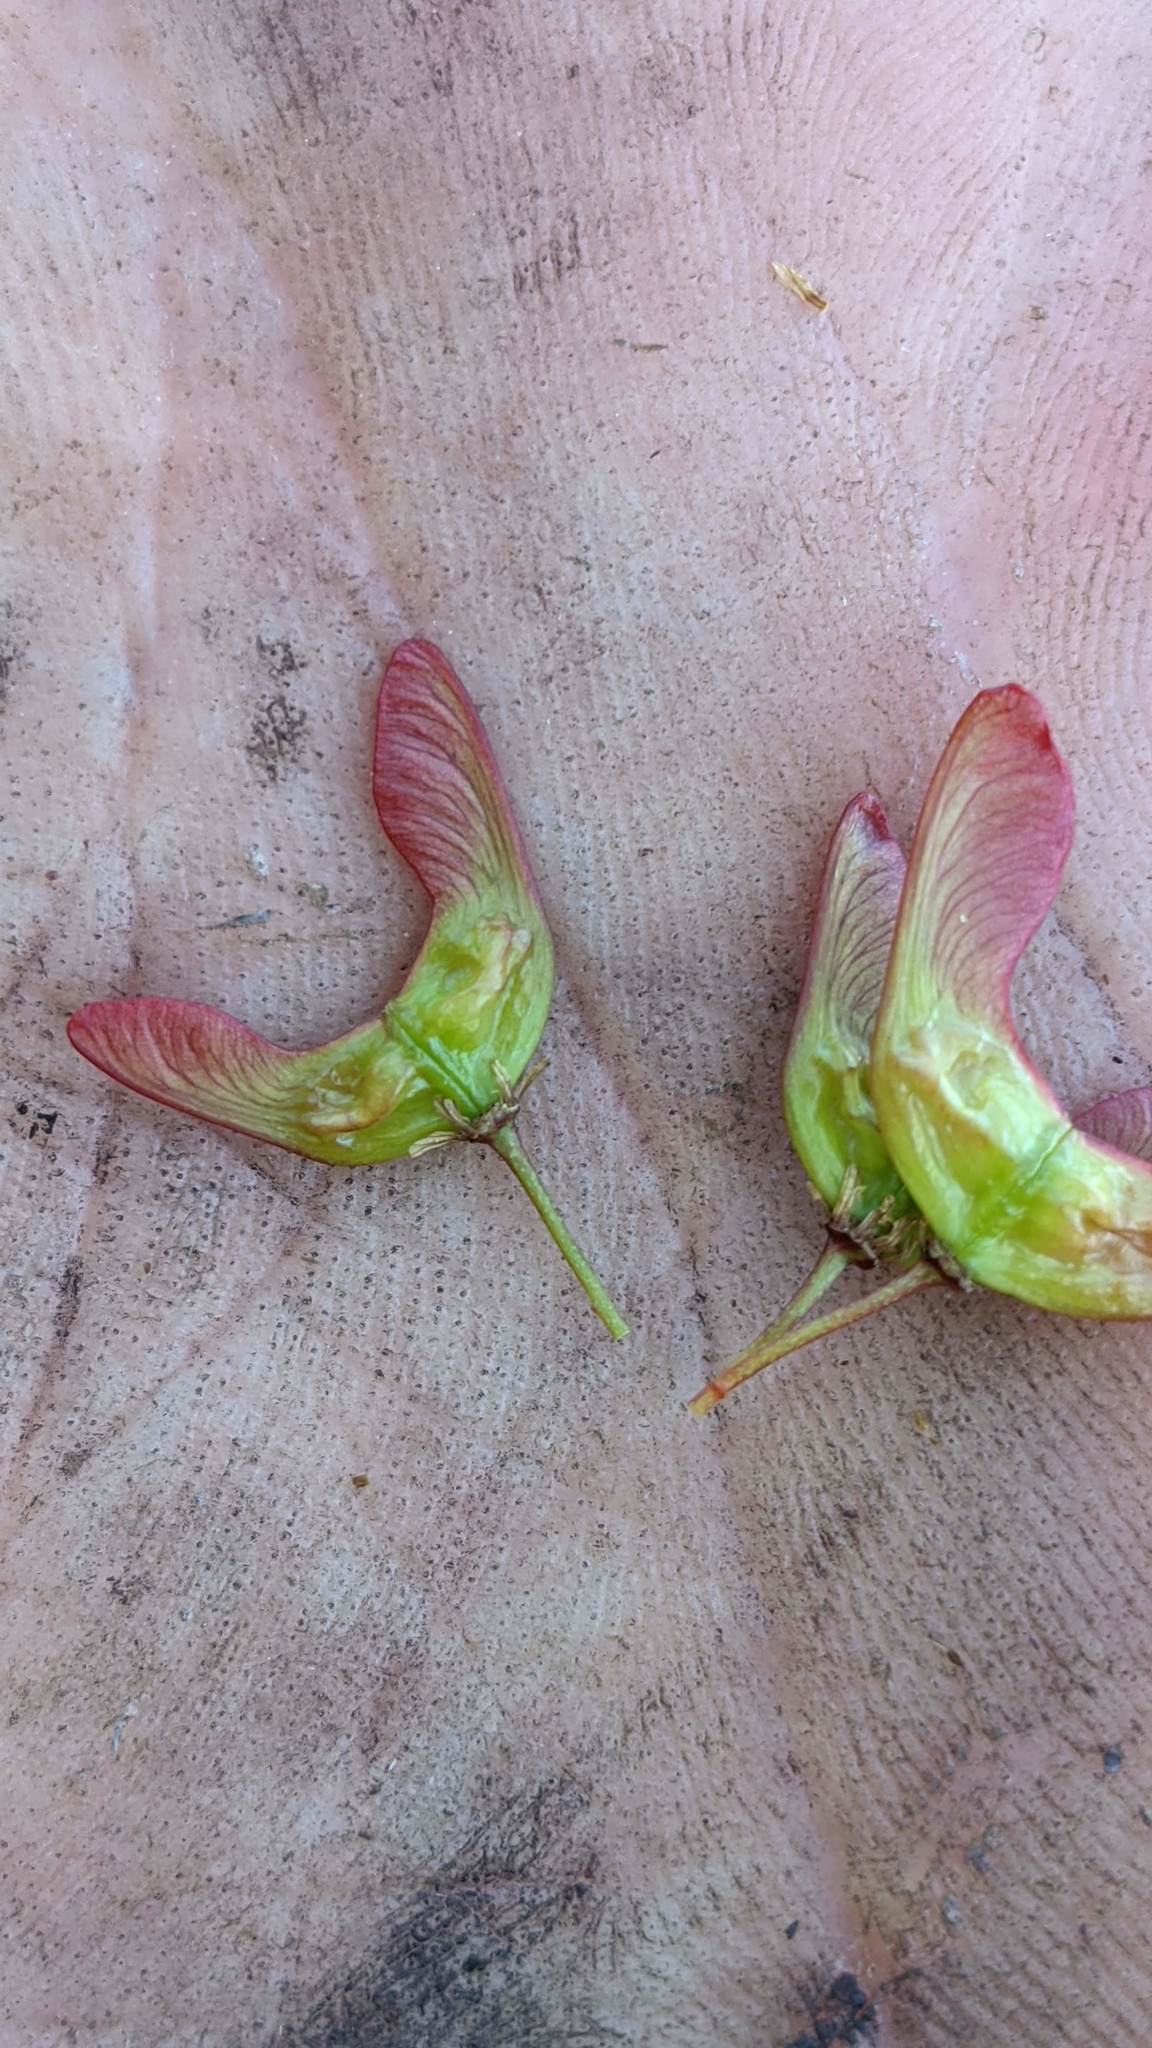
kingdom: Plantae
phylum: Tracheophyta
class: Magnoliopsida
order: Sapindales
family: Sapindaceae
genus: Acer
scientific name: Acer glabrum
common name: Rocky mountain maple
